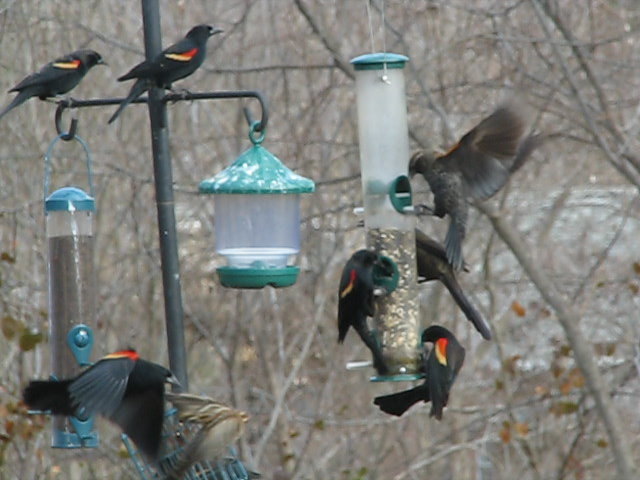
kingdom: Animalia
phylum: Chordata
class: Aves
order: Passeriformes
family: Icteridae
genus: Agelaius
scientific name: Agelaius phoeniceus
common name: Red-winged blackbird
